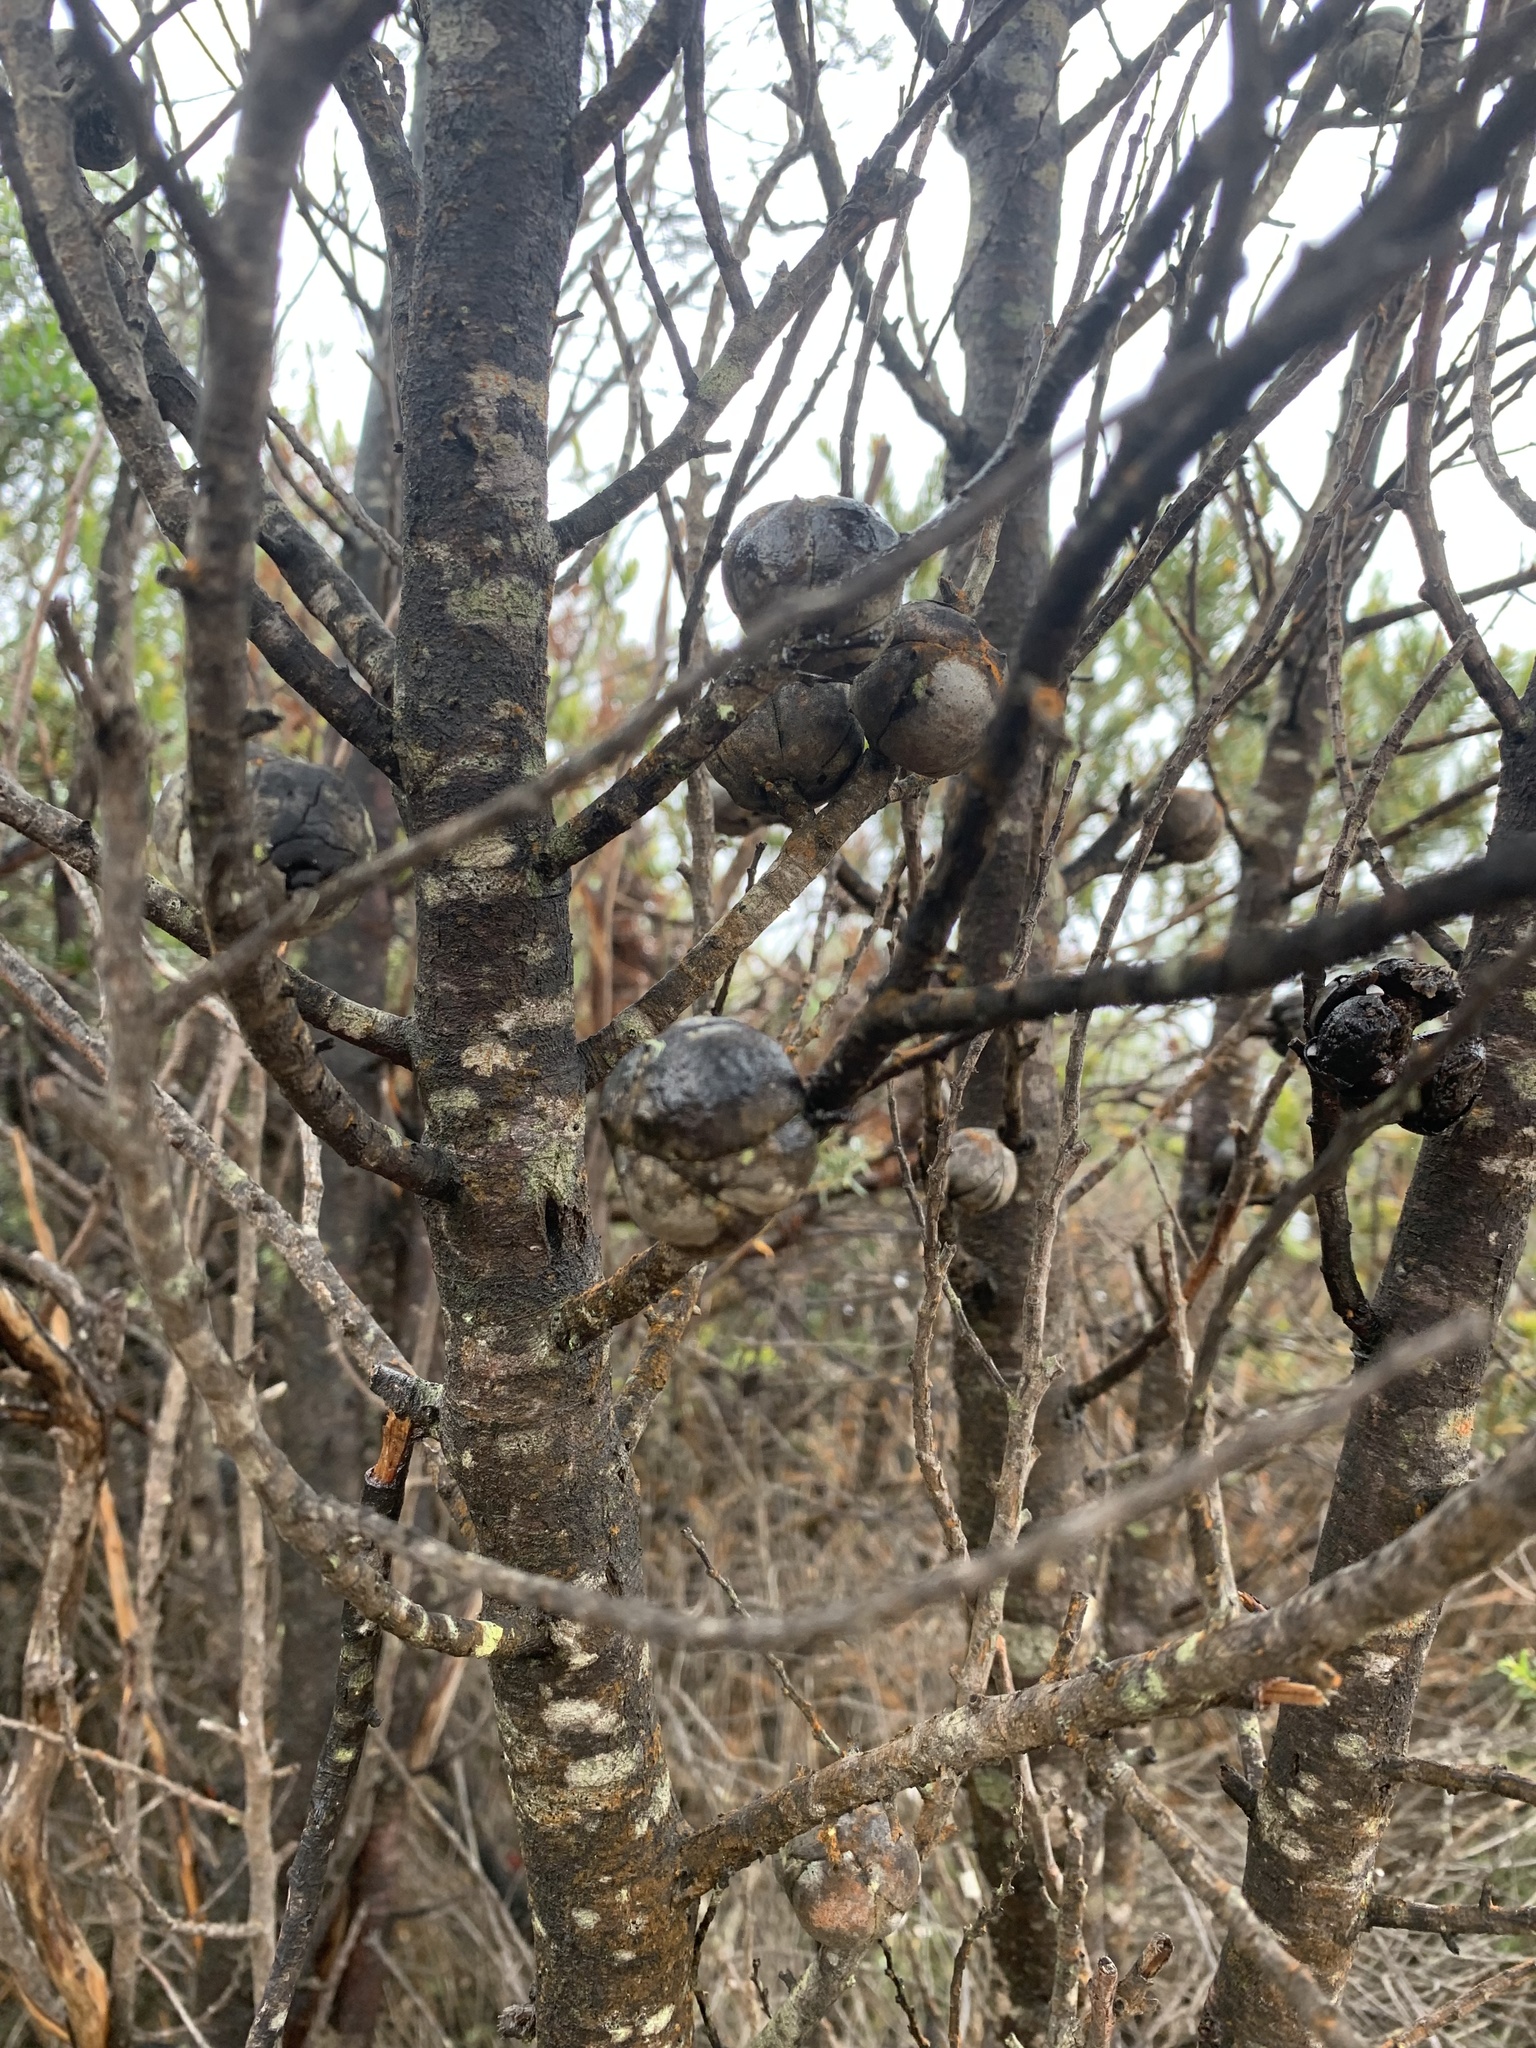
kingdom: Plantae
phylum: Tracheophyta
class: Pinopsida
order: Pinales
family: Cupressaceae
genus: Callitris
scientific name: Callitris muelleri
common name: Illawarra cypress-pine
